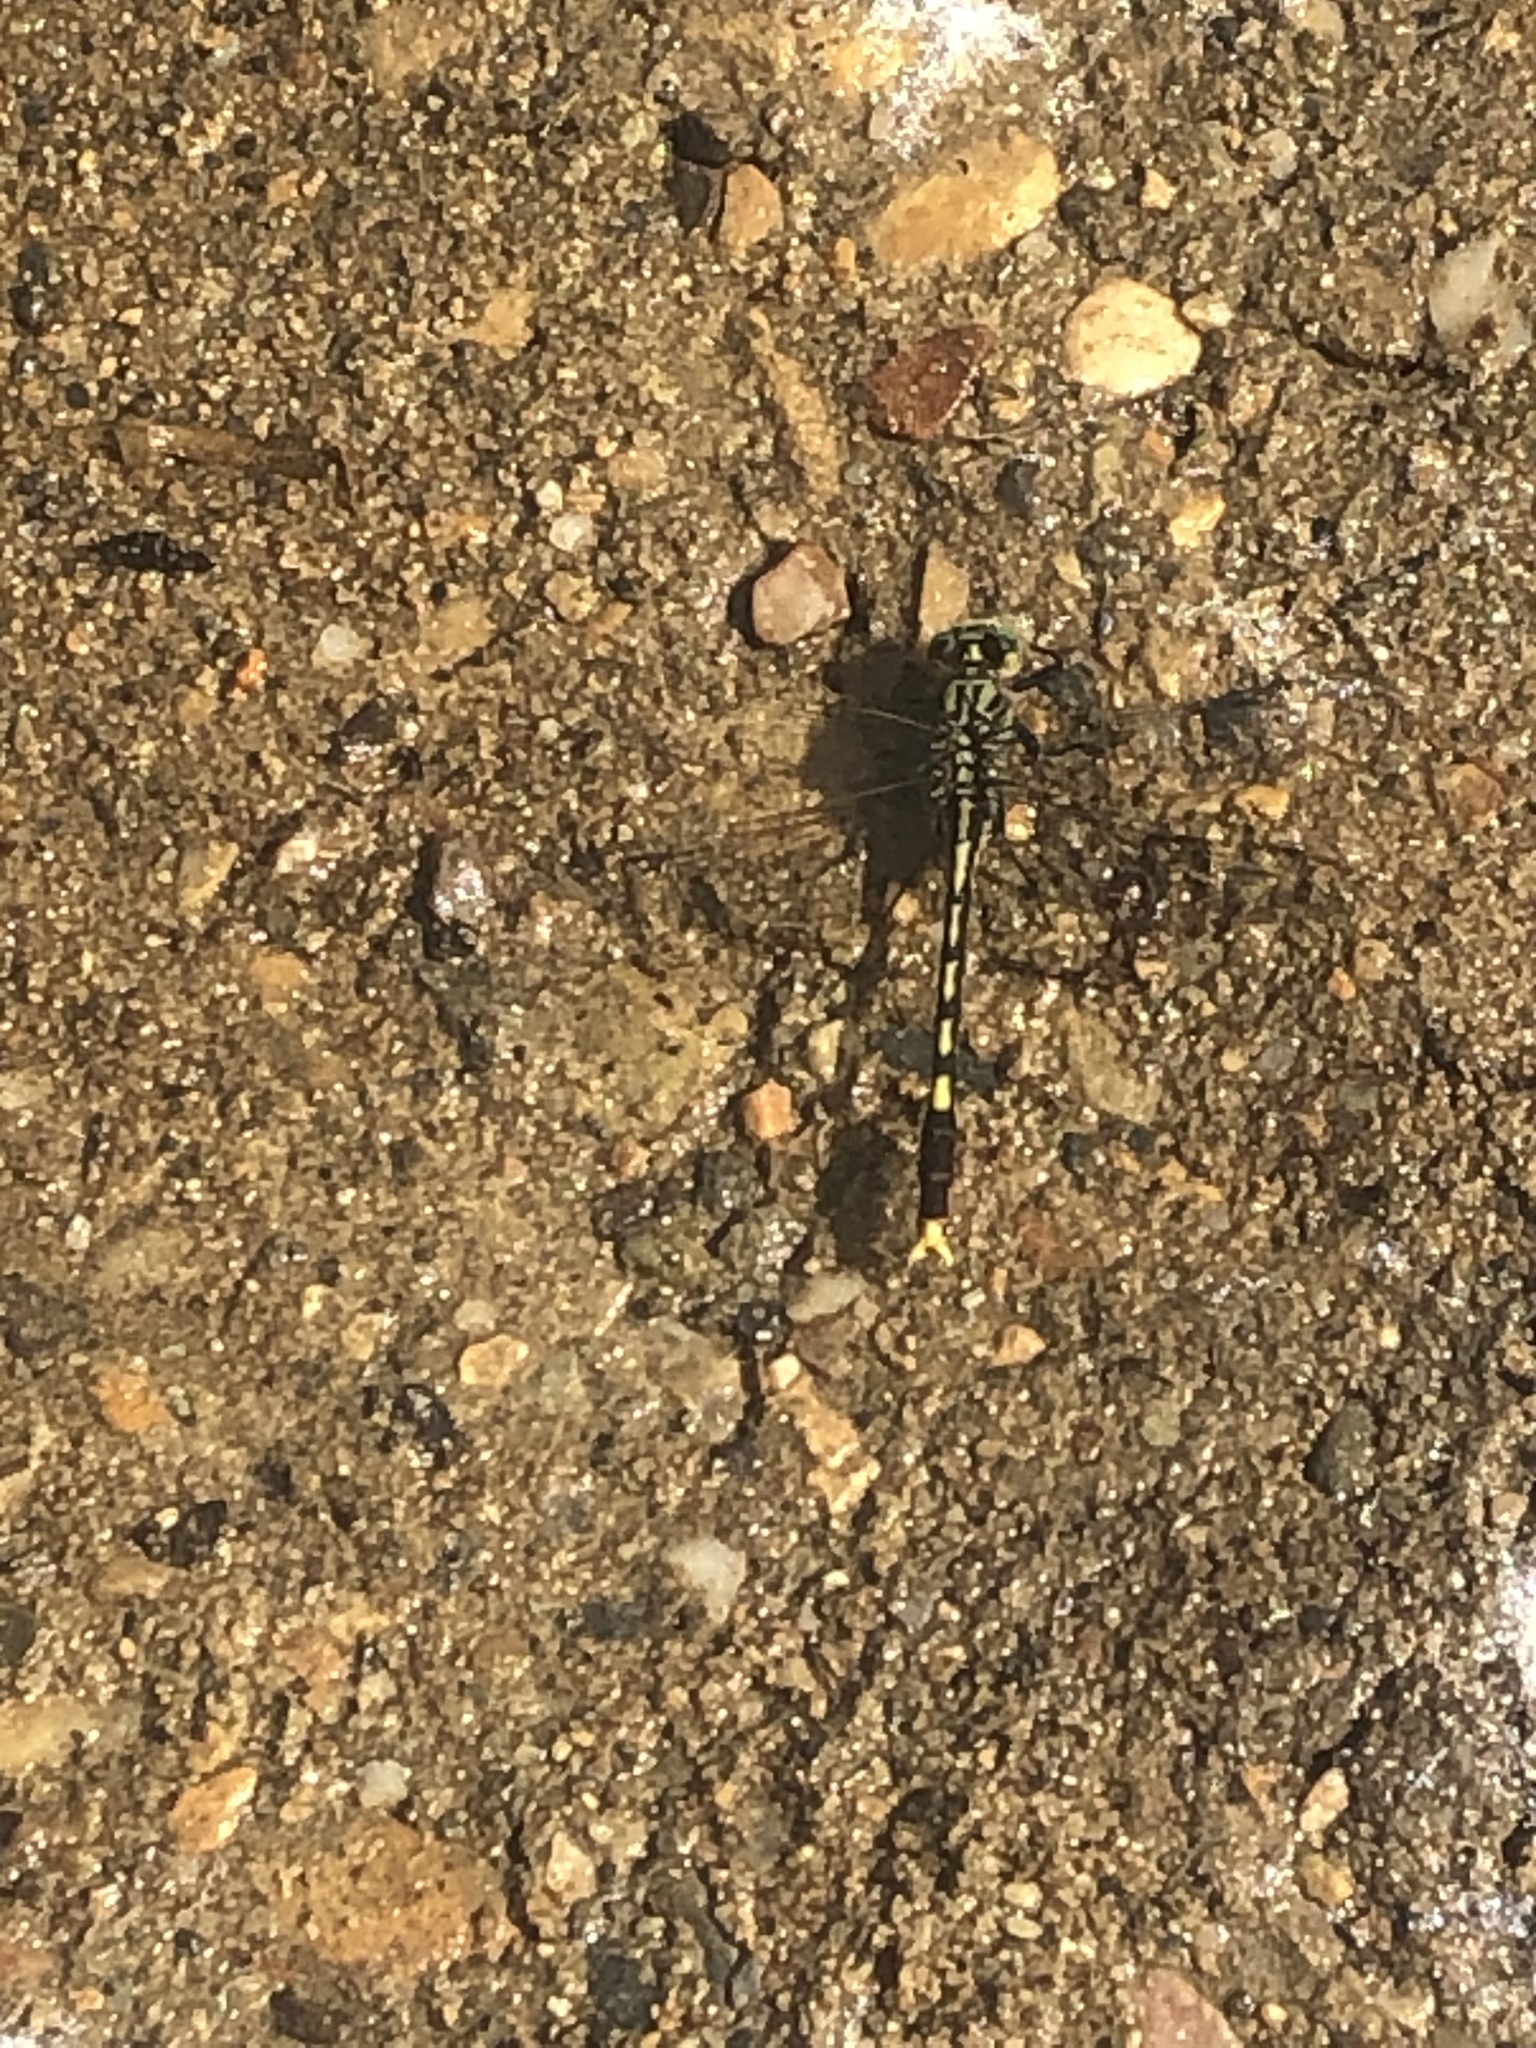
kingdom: Animalia
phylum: Arthropoda
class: Insecta
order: Odonata
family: Gomphidae
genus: Arigomphus
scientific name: Arigomphus villosipes
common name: Unicorn clubtail
